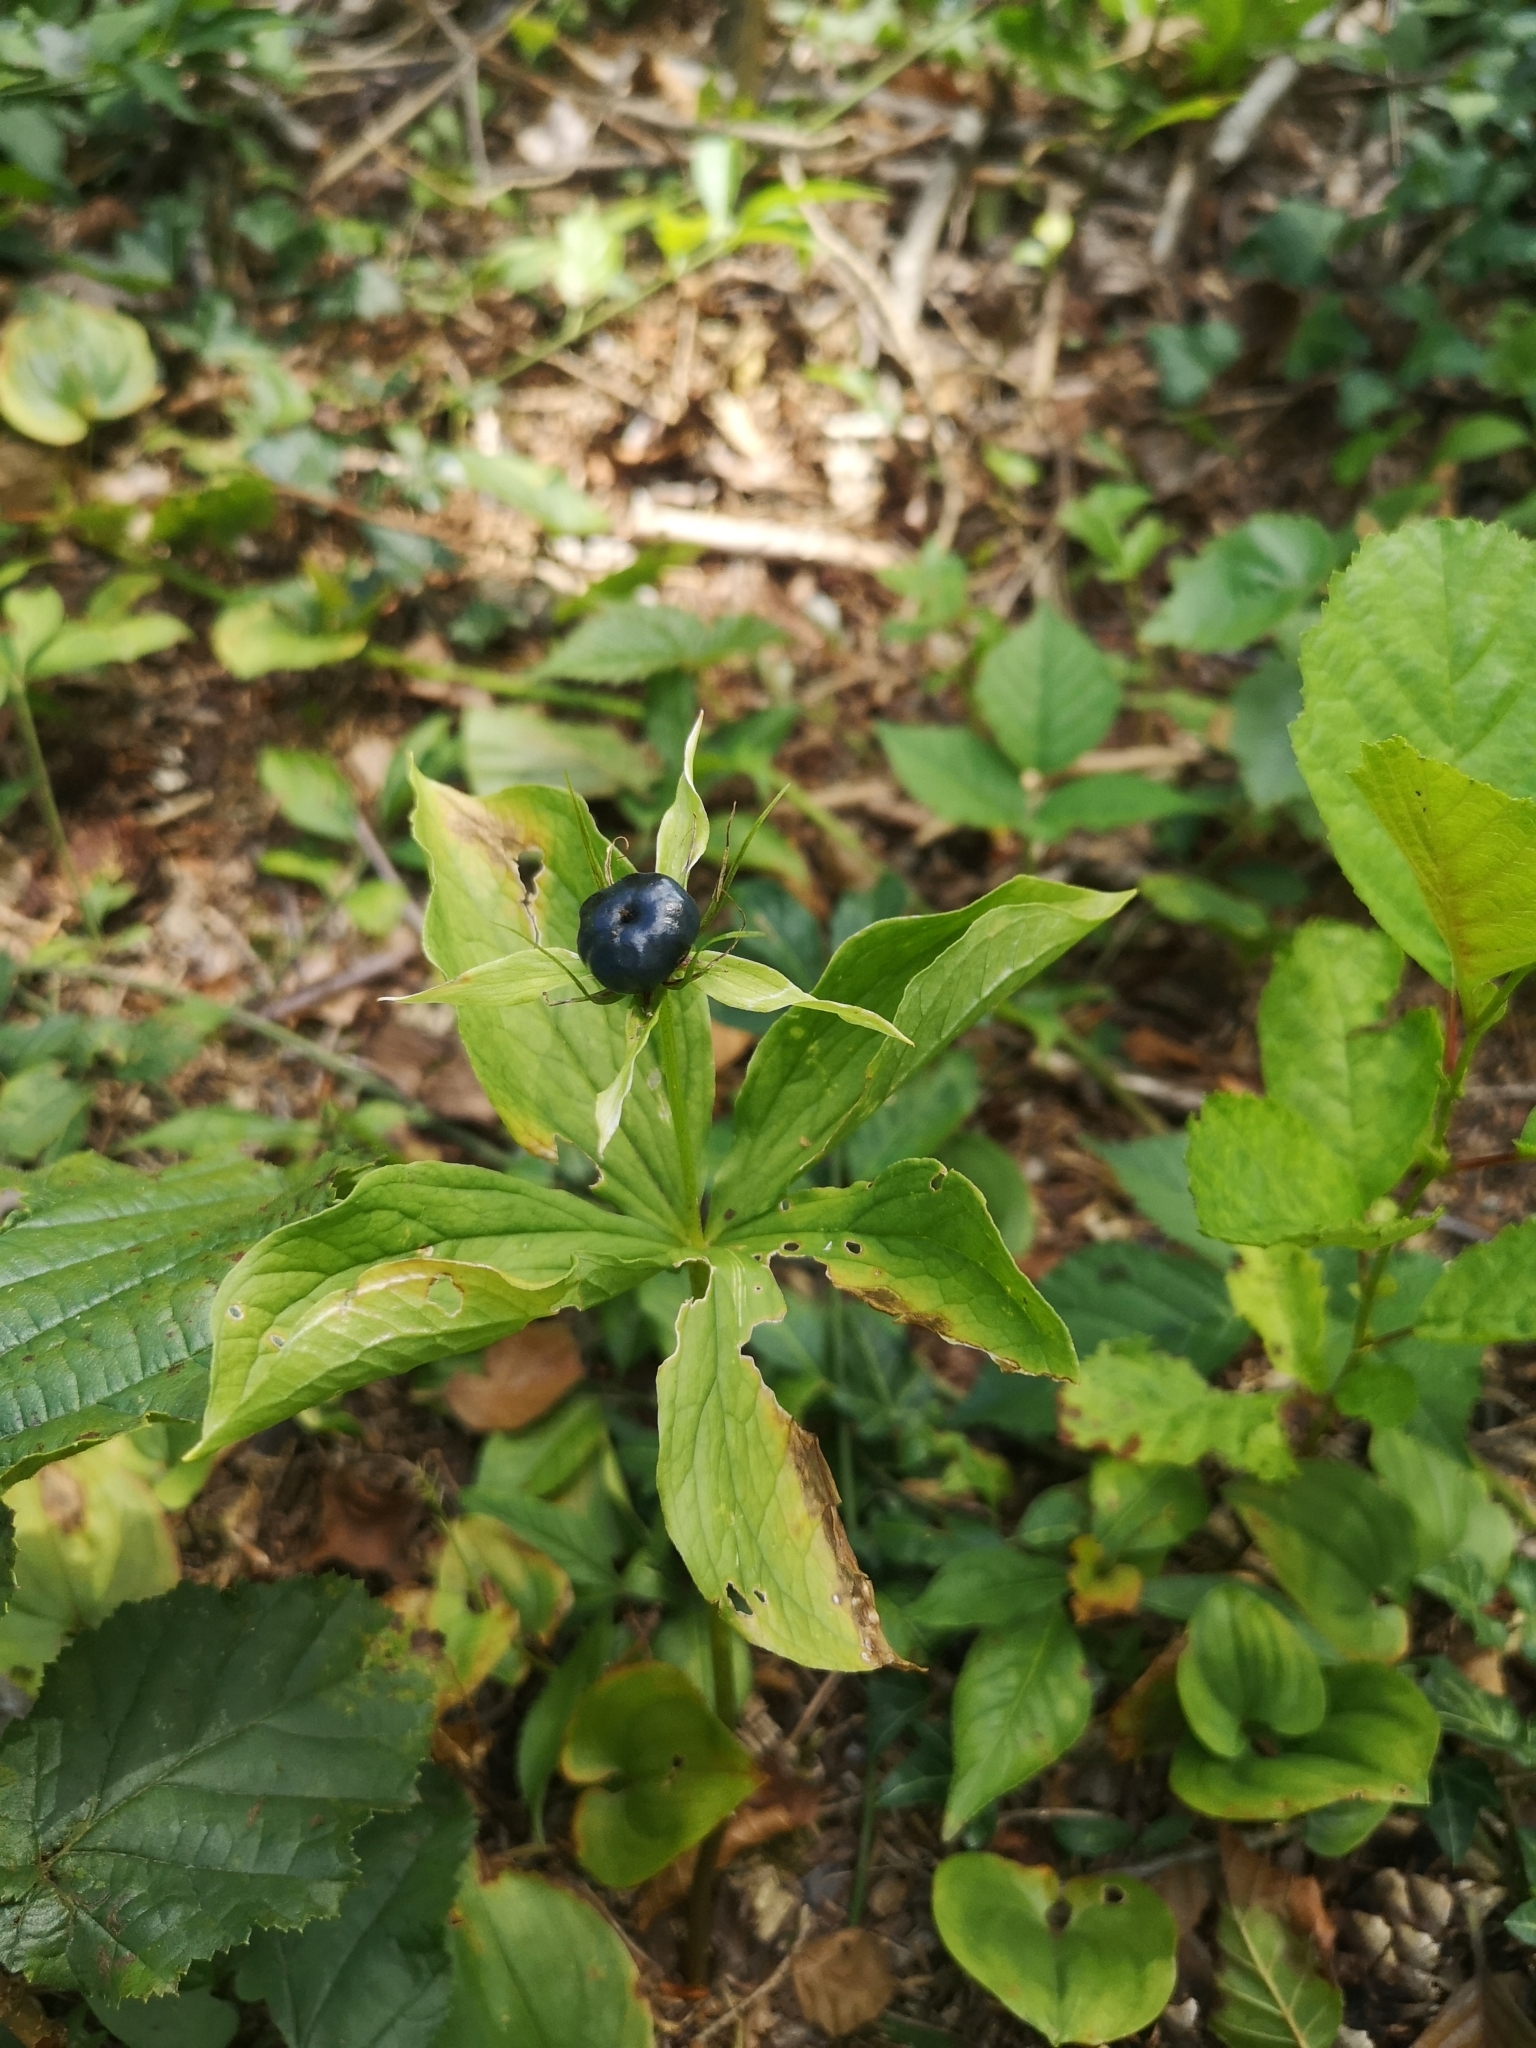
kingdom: Plantae
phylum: Tracheophyta
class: Liliopsida
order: Liliales
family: Melanthiaceae
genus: Paris
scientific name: Paris quadrifolia
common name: Herb-paris
